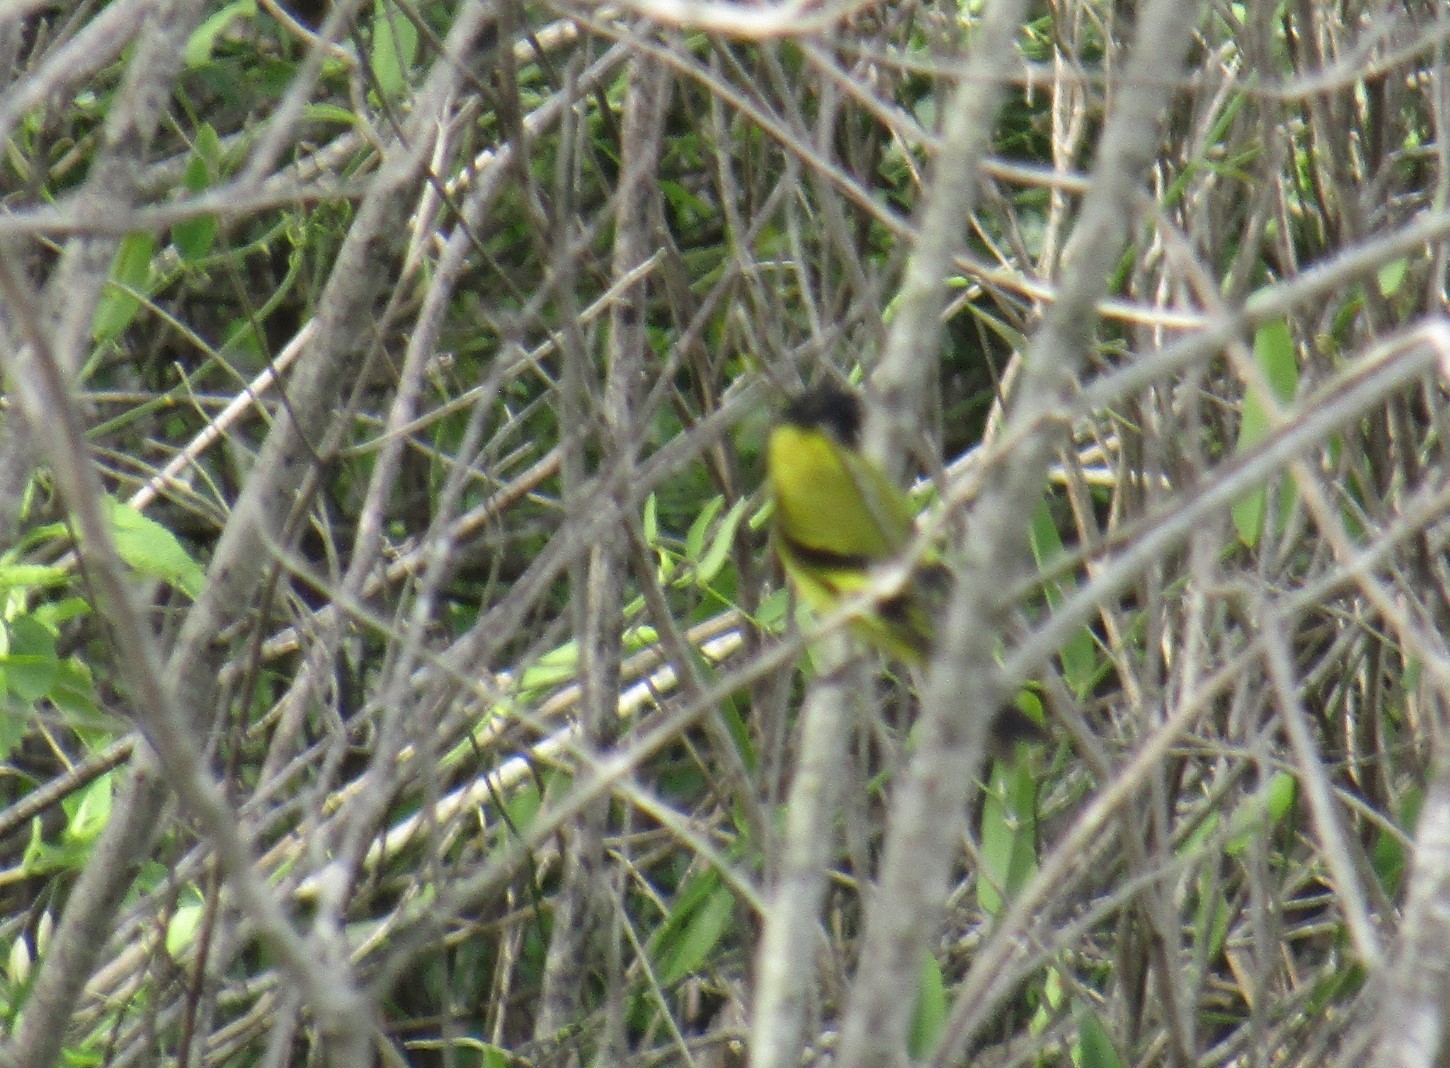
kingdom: Animalia
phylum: Chordata
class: Aves
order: Passeriformes
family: Fringillidae
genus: Spinus
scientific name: Spinus magellanicus
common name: Hooded siskin
